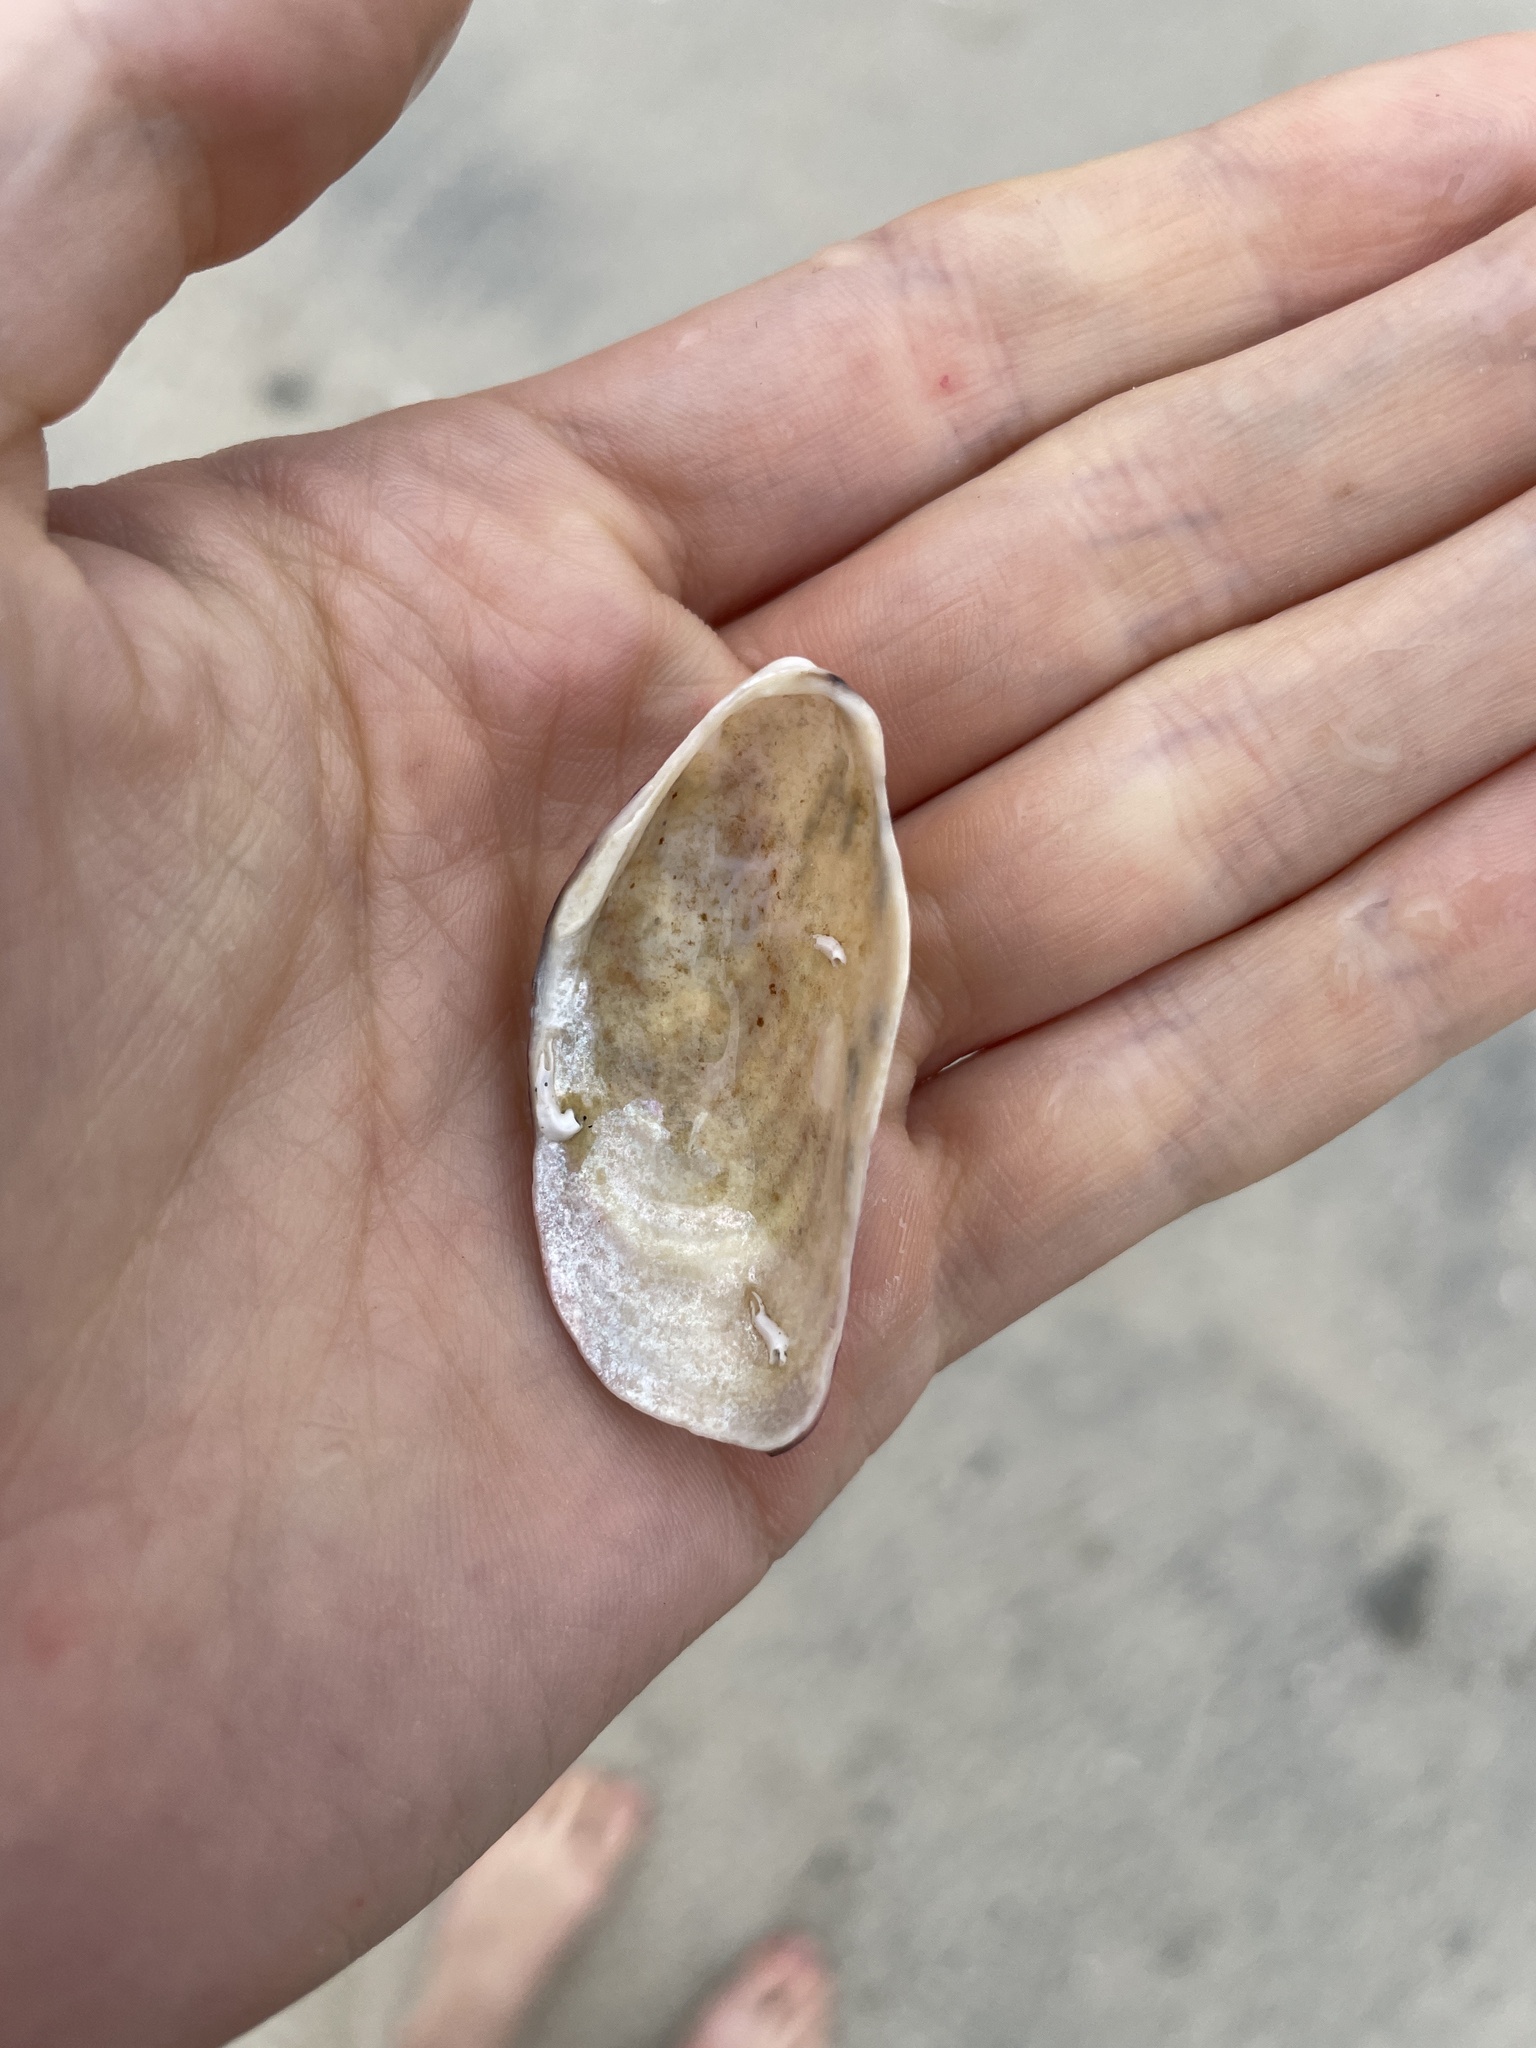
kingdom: Animalia
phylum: Mollusca
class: Bivalvia
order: Mytilida
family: Mytilidae
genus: Modiolus
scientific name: Modiolus modiolus
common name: Horse-mussel
